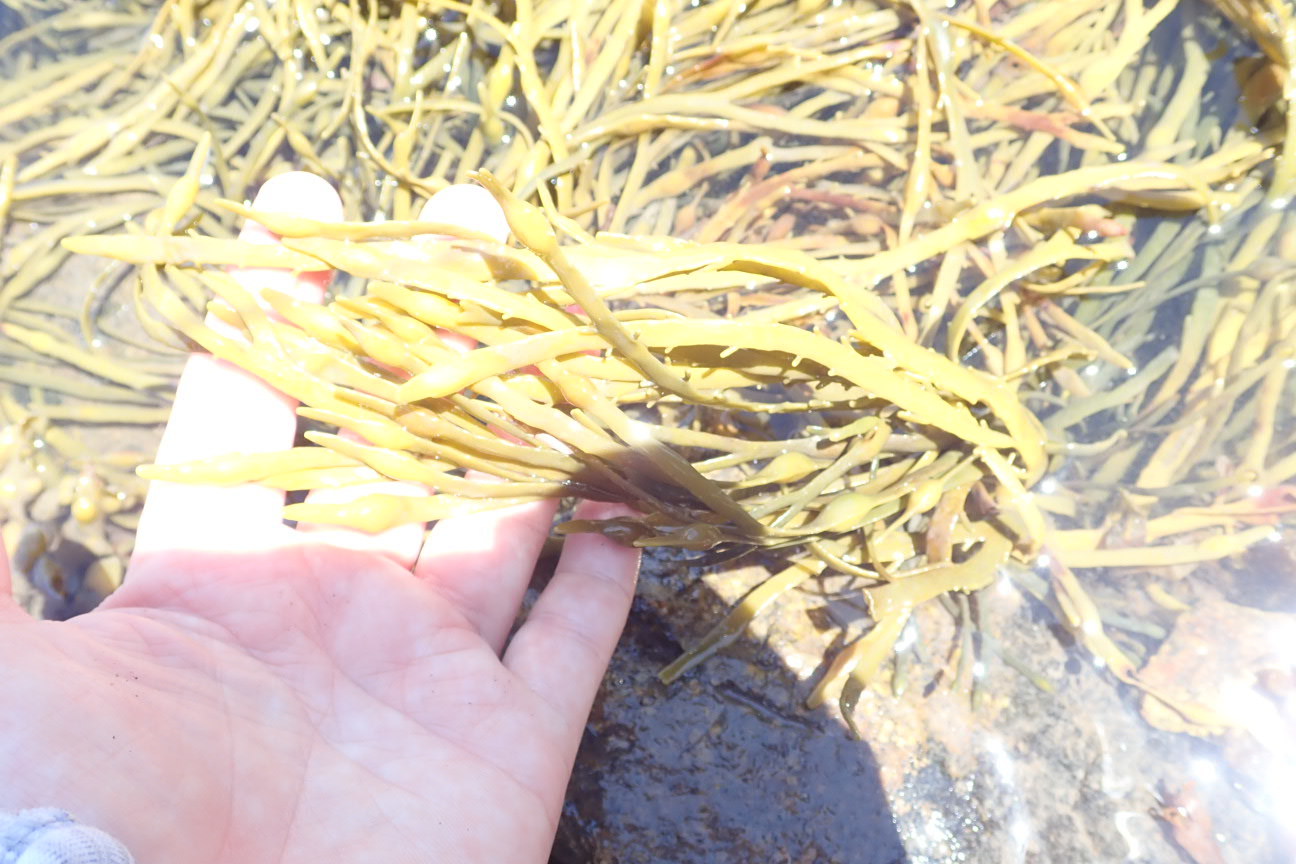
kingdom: Chromista
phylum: Ochrophyta
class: Phaeophyceae
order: Fucales
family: Fucaceae
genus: Ascophyllum
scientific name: Ascophyllum nodosum
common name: Knotted wrack
